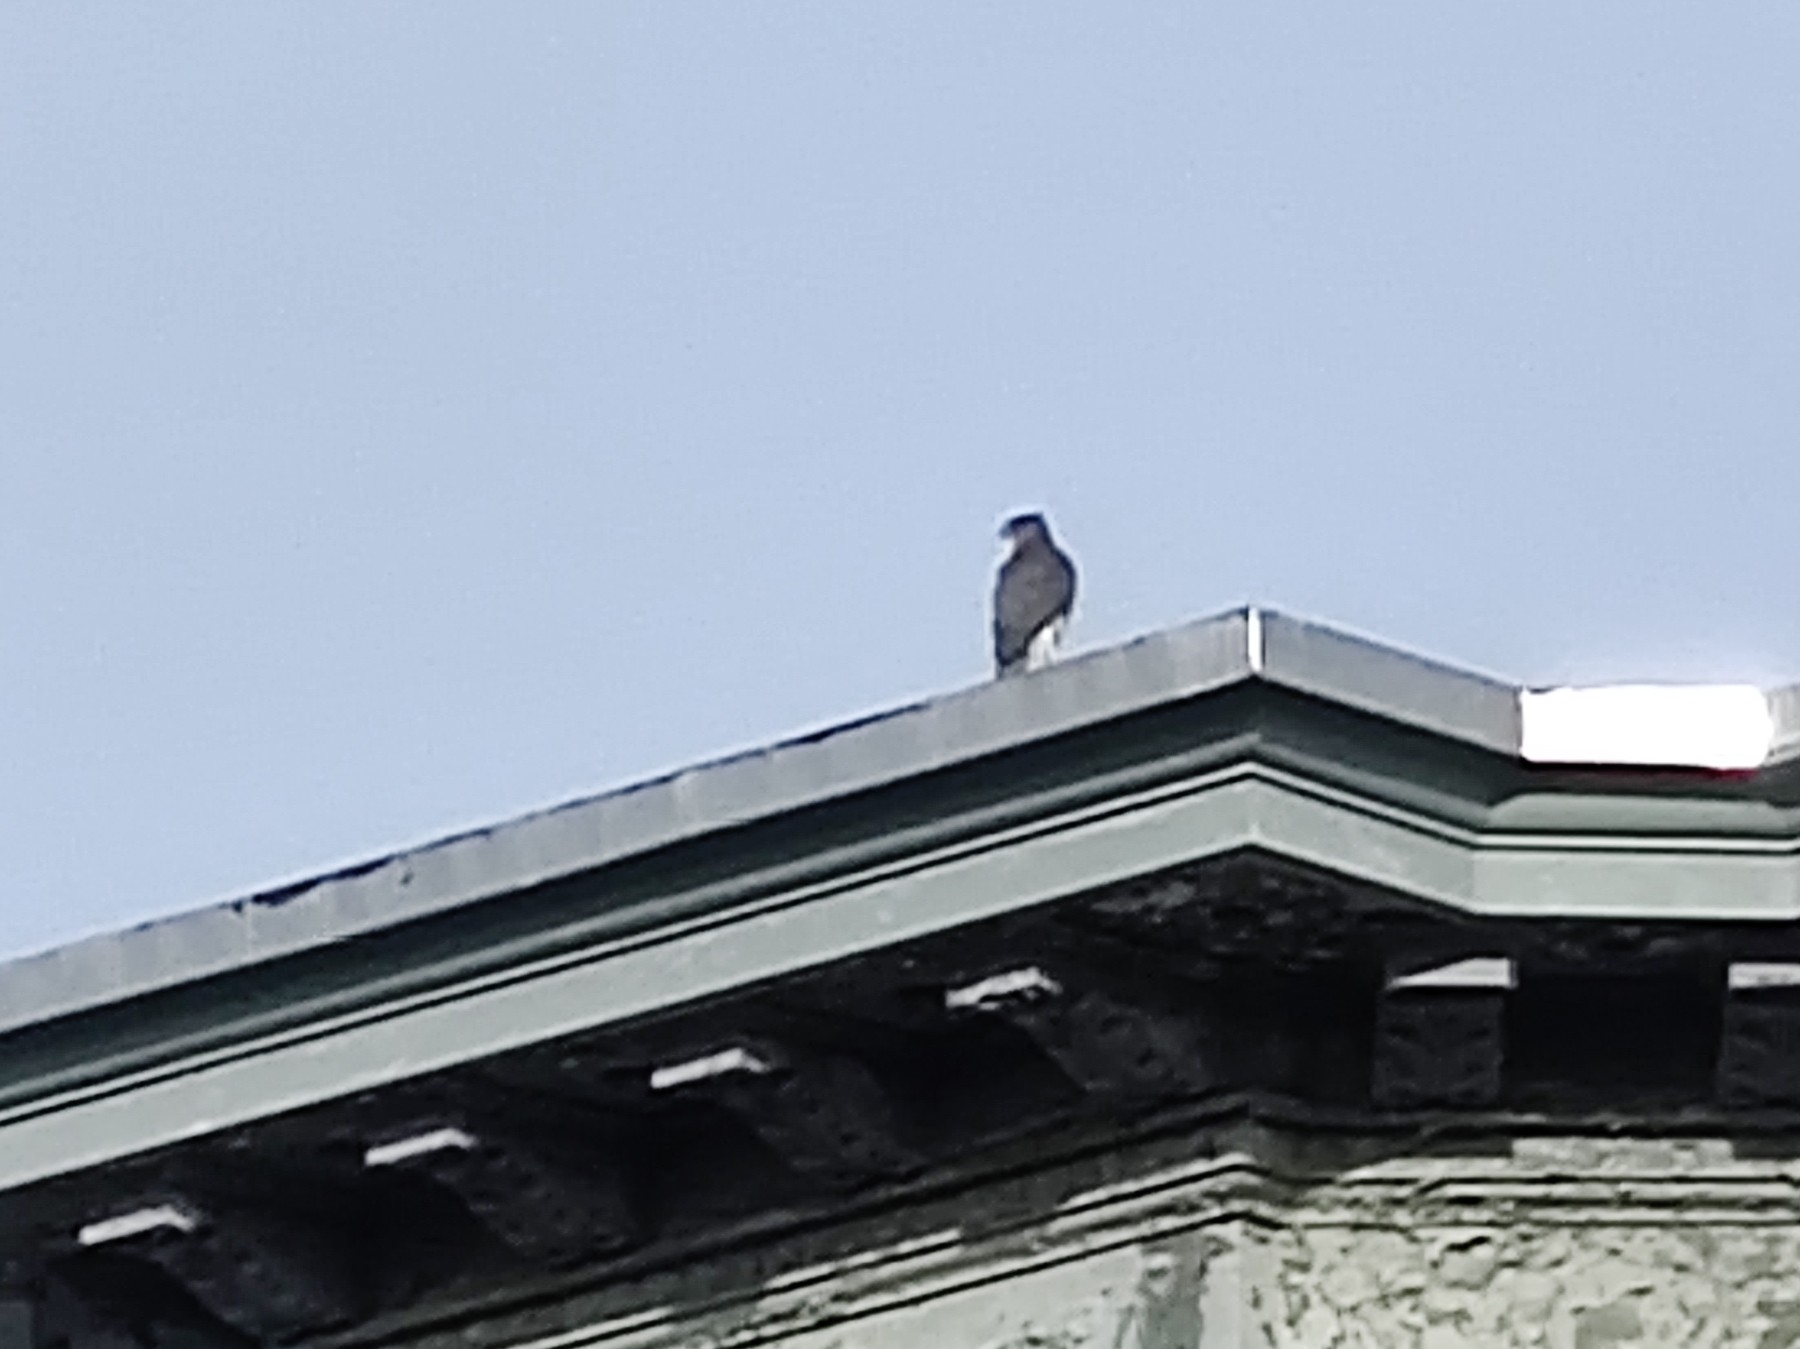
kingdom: Animalia
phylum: Chordata
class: Aves
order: Accipitriformes
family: Accipitridae
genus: Accipiter
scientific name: Accipiter cooperii
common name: Cooper's hawk
